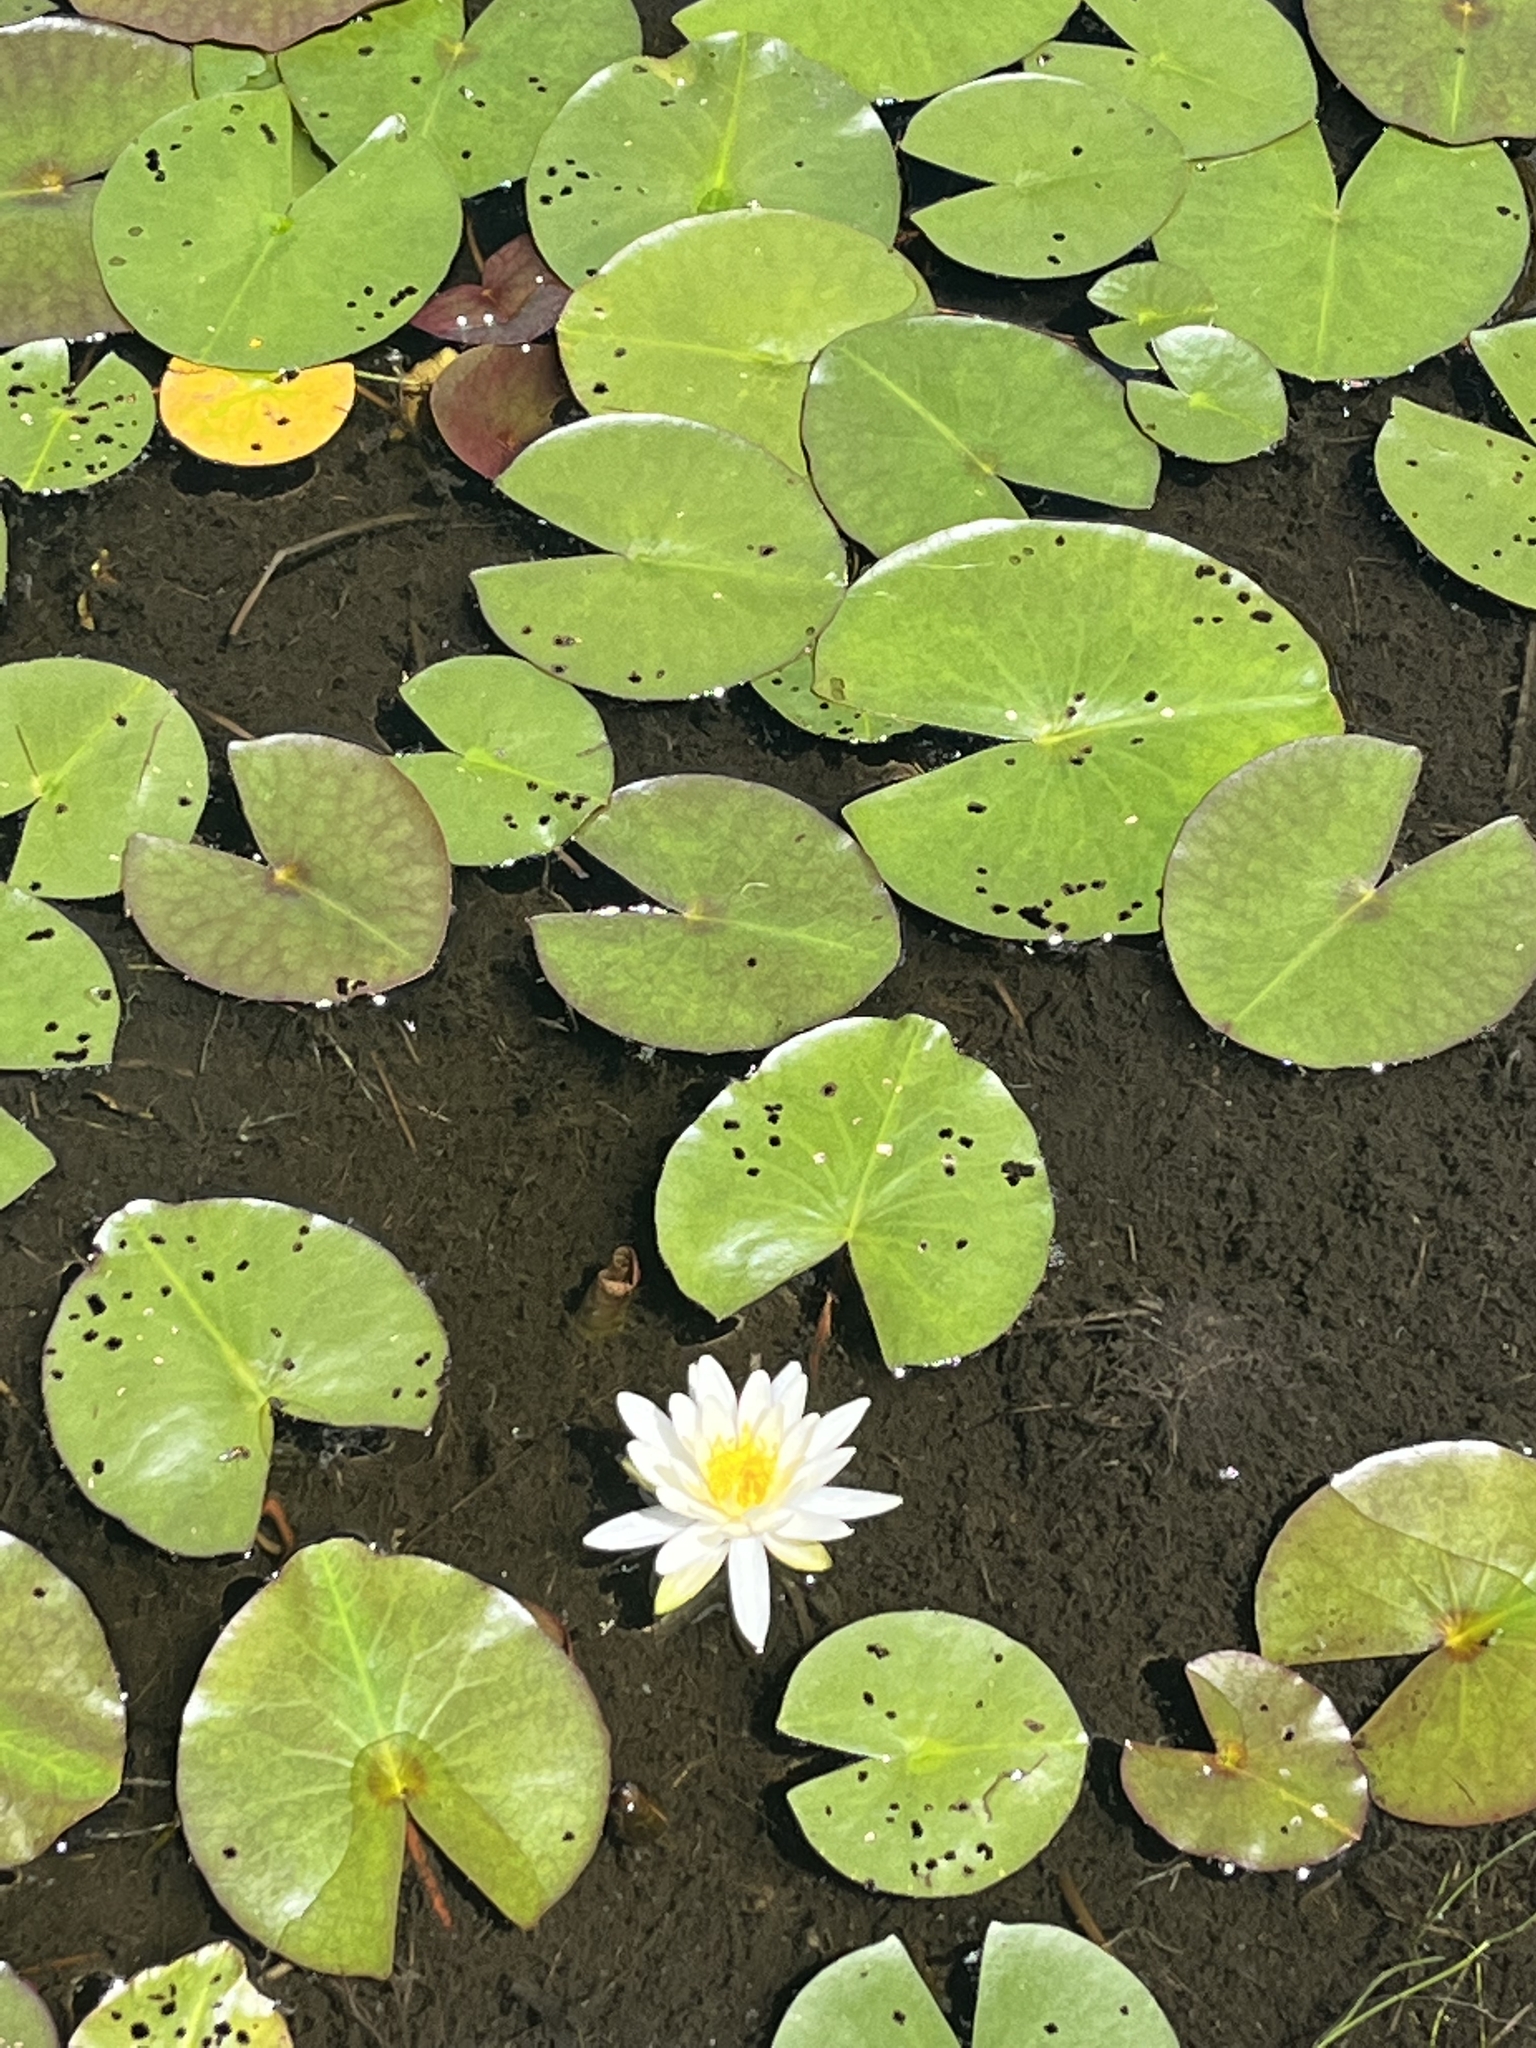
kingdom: Plantae
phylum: Tracheophyta
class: Magnoliopsida
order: Nymphaeales
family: Nymphaeaceae
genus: Nymphaea
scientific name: Nymphaea odorata
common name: Fragrant water-lily
